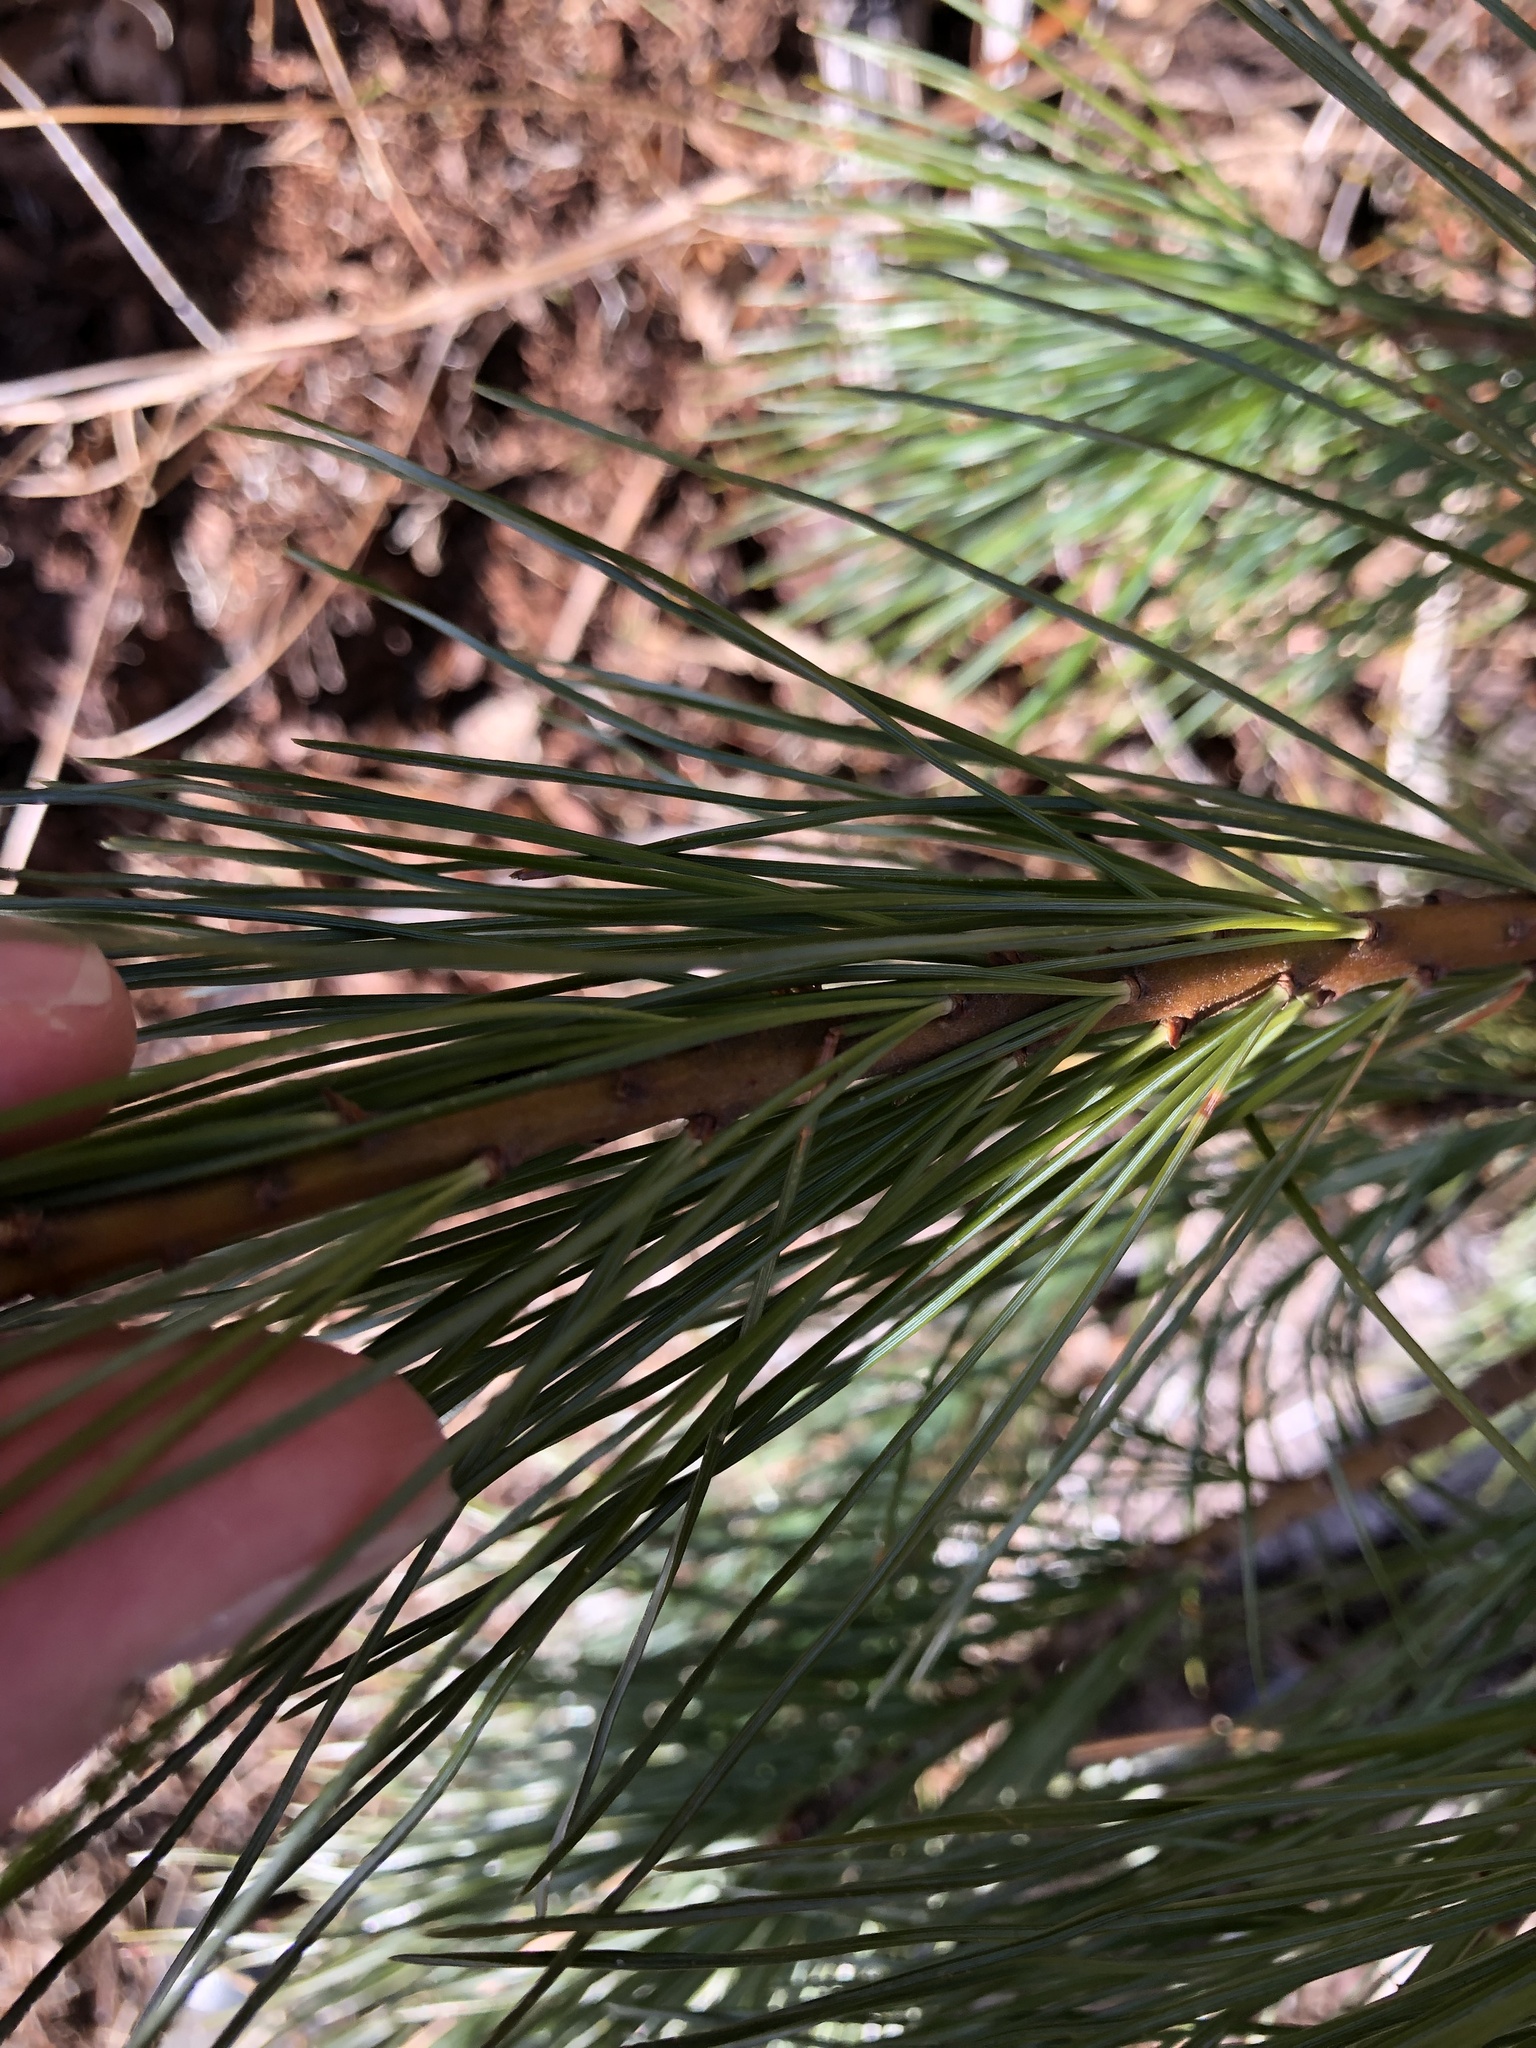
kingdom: Plantae
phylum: Tracheophyta
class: Pinopsida
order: Pinales
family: Pinaceae
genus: Pinus
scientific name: Pinus monticola
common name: Western white pine
